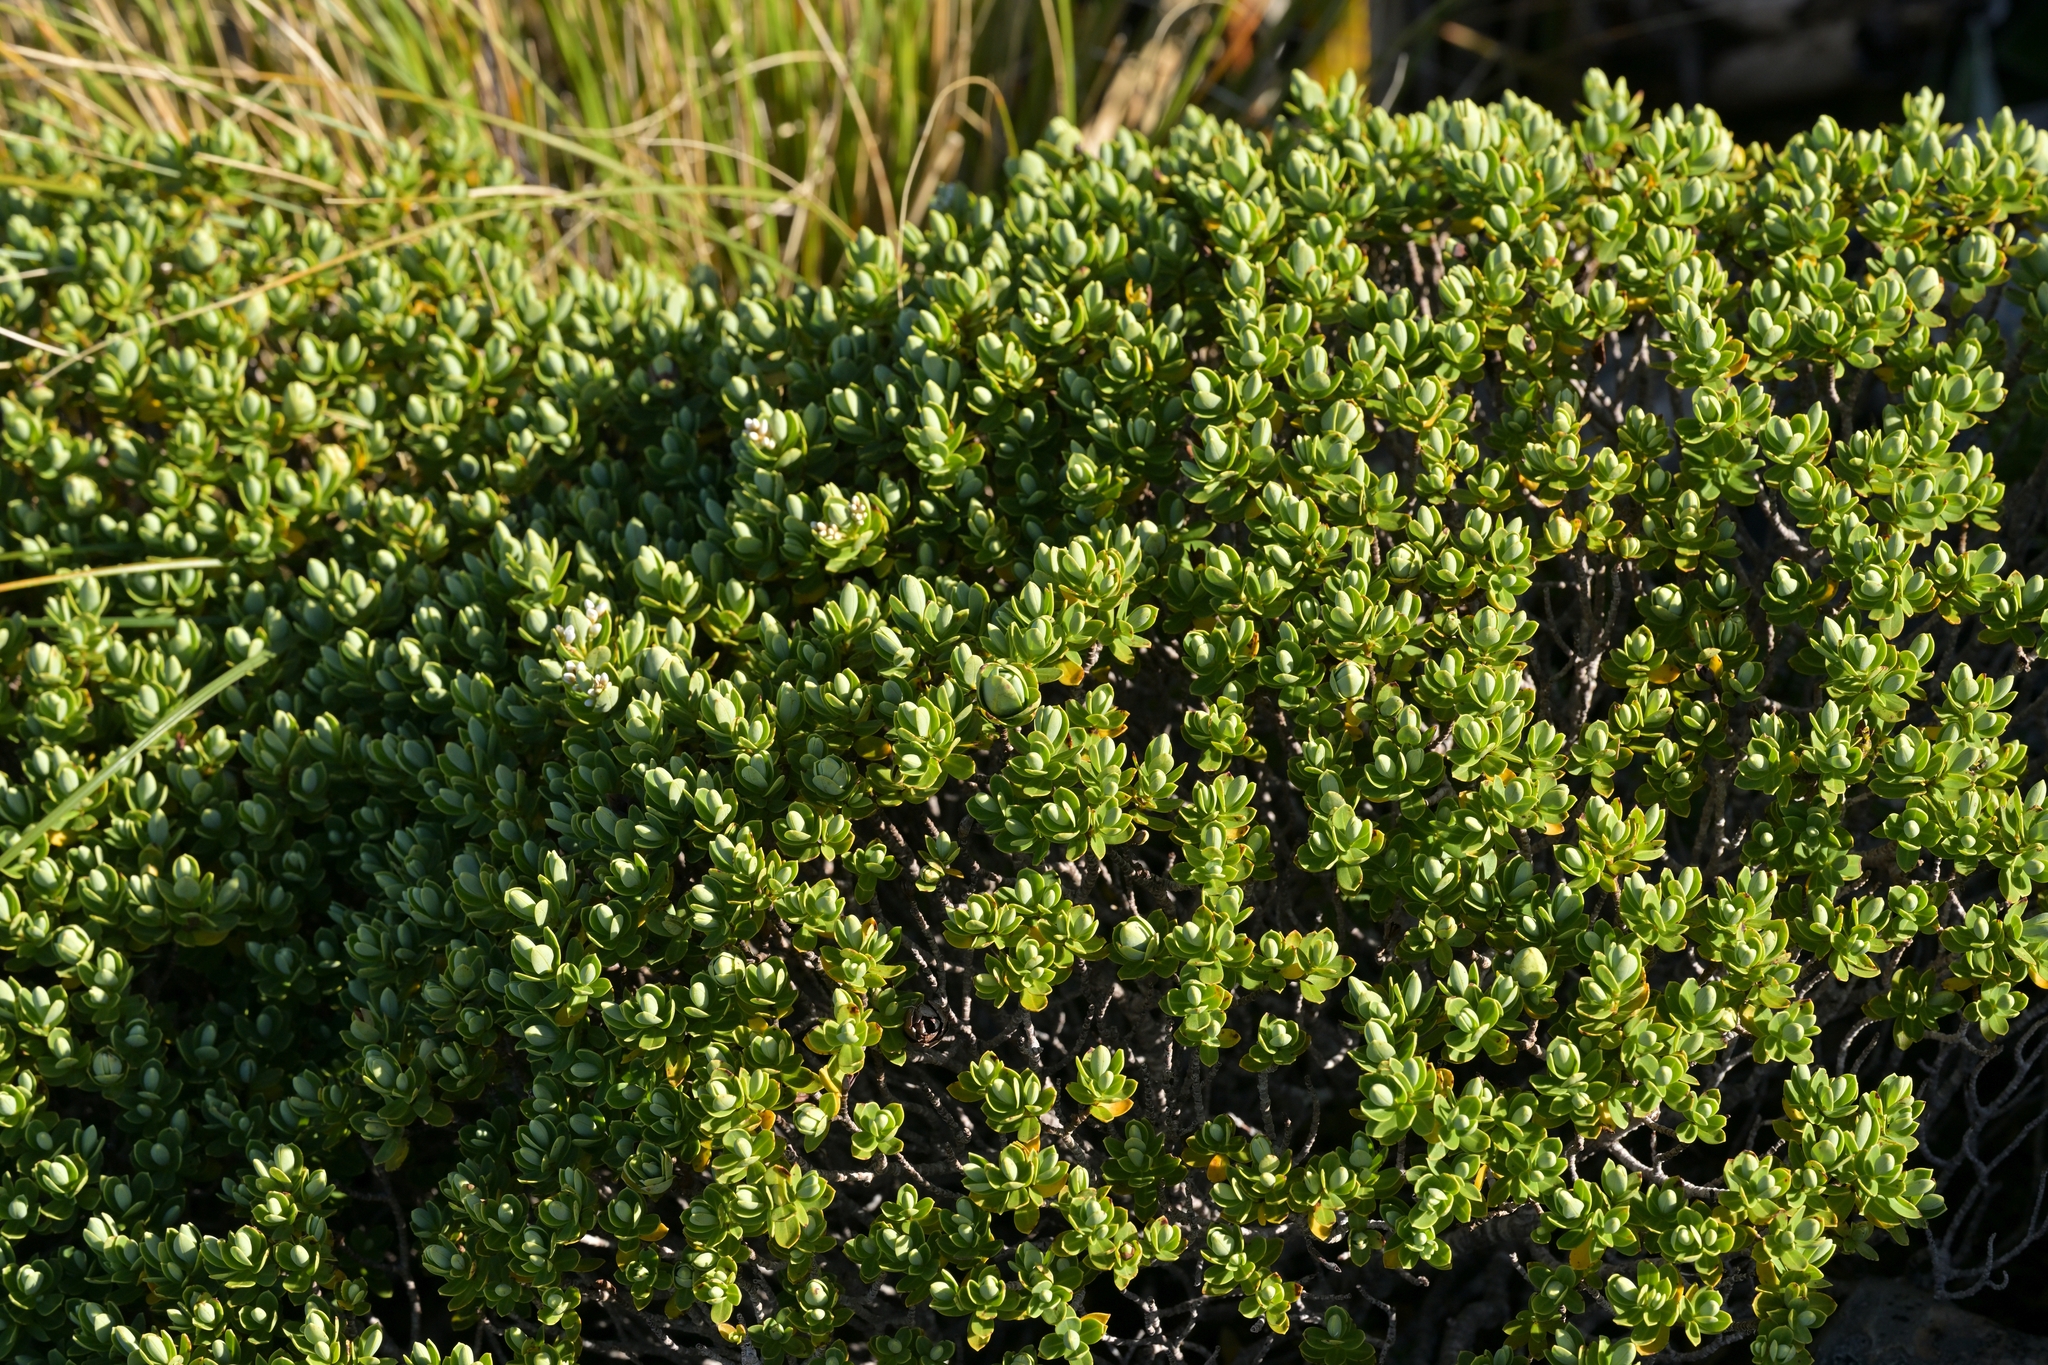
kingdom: Plantae
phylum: Tracheophyta
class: Magnoliopsida
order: Lamiales
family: Plantaginaceae
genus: Veronica
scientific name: Veronica topiaria
